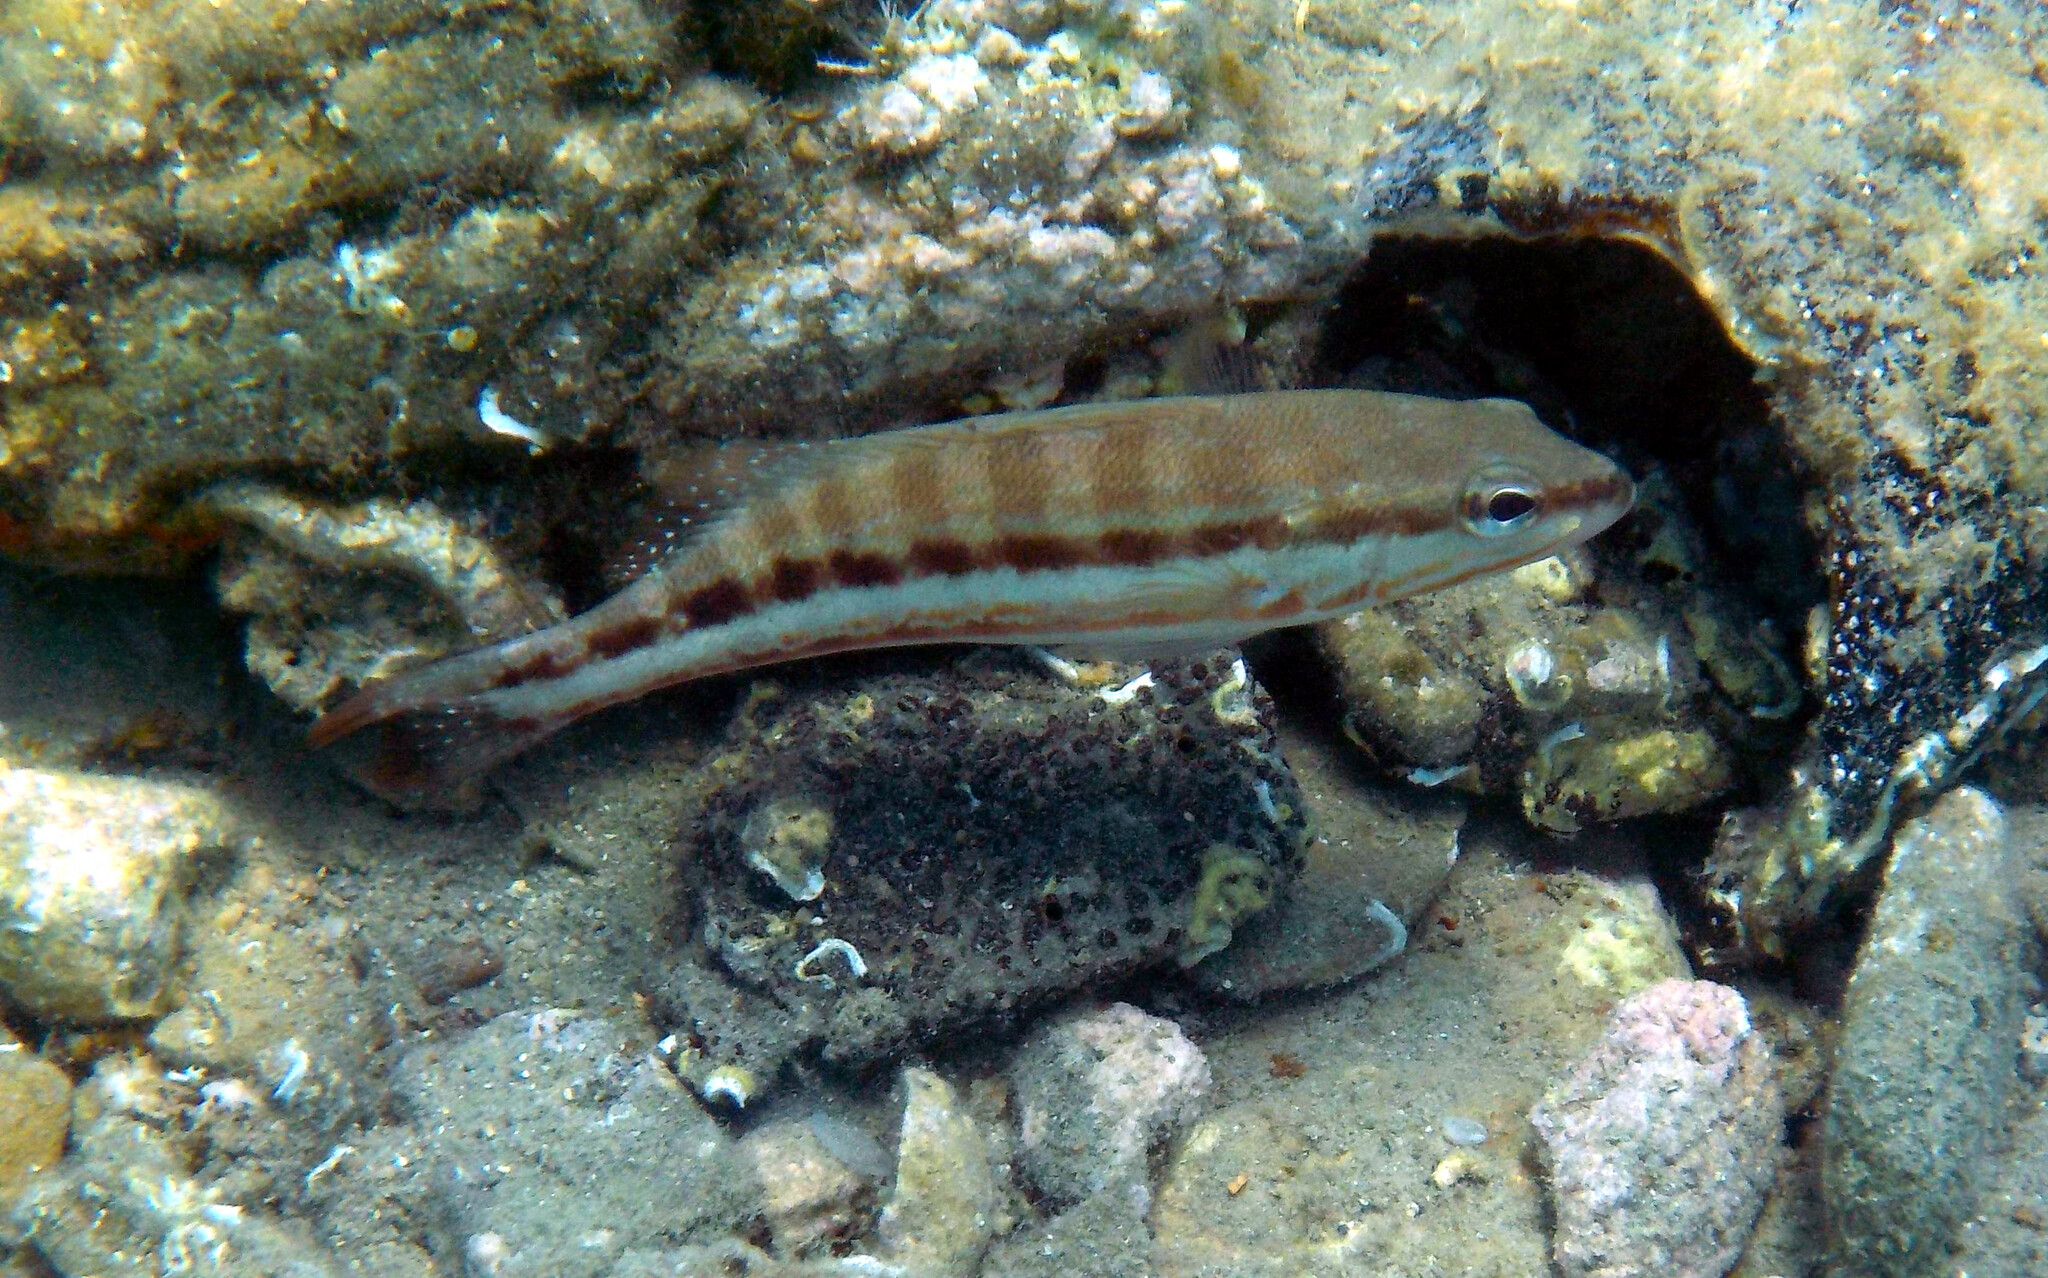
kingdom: Animalia
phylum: Chordata
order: Perciformes
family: Serranidae
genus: Serranus
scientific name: Serranus cabrilla
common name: Comber
